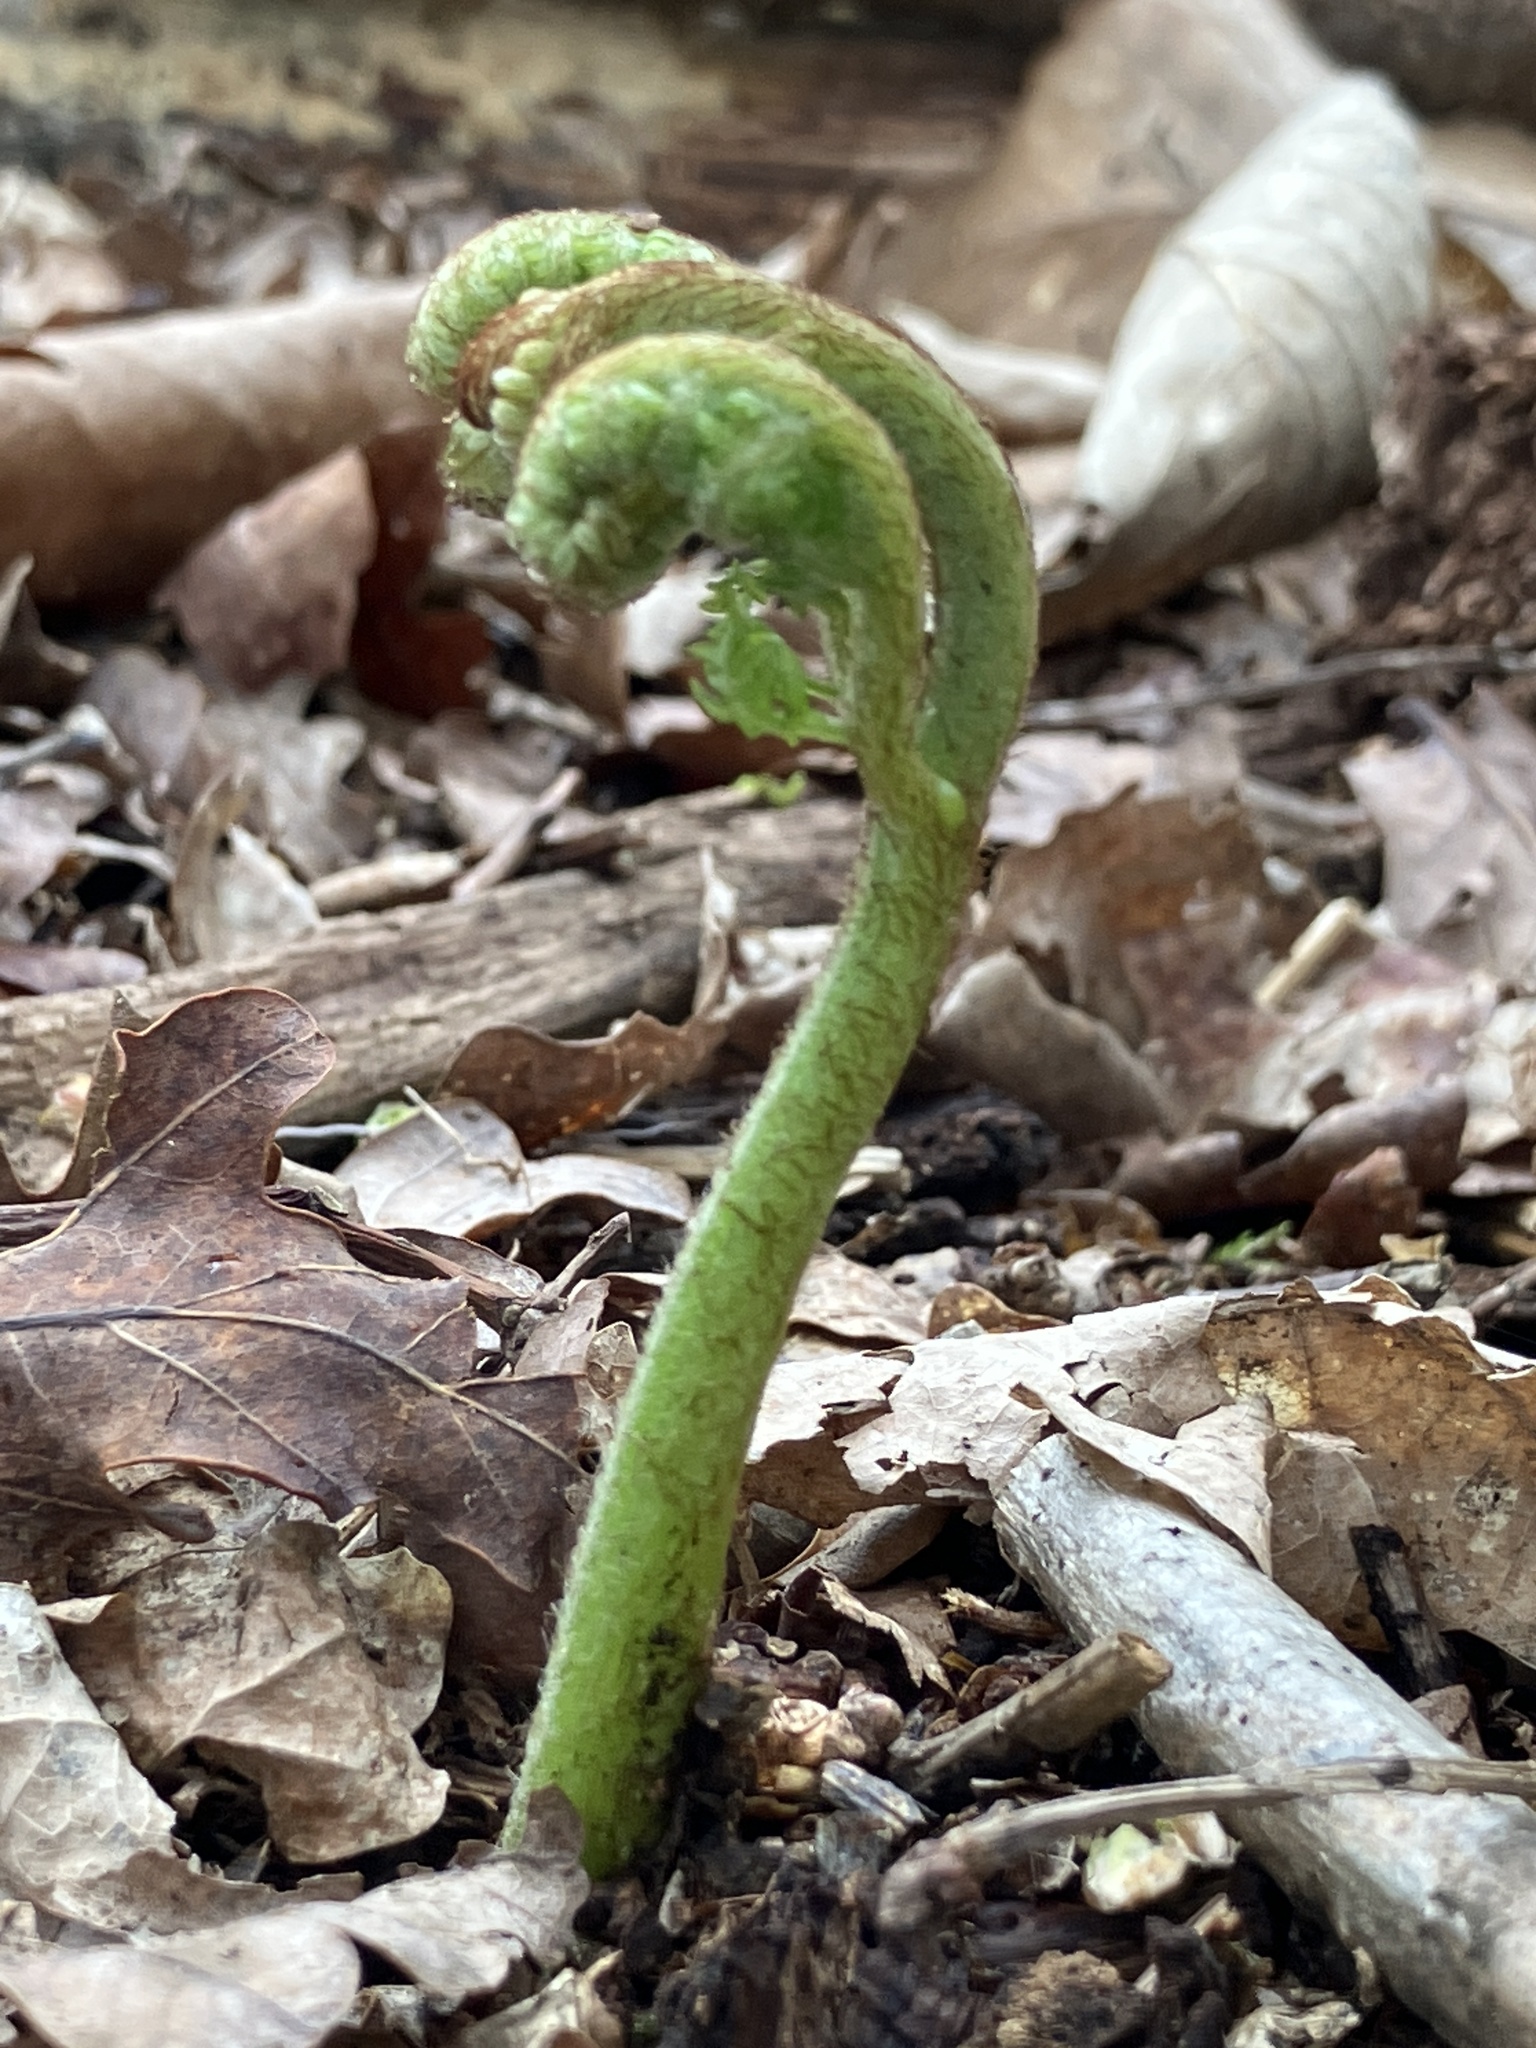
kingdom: Plantae
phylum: Tracheophyta
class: Polypodiopsida
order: Polypodiales
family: Dennstaedtiaceae
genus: Pteridium
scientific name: Pteridium aquilinum
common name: Bracken
